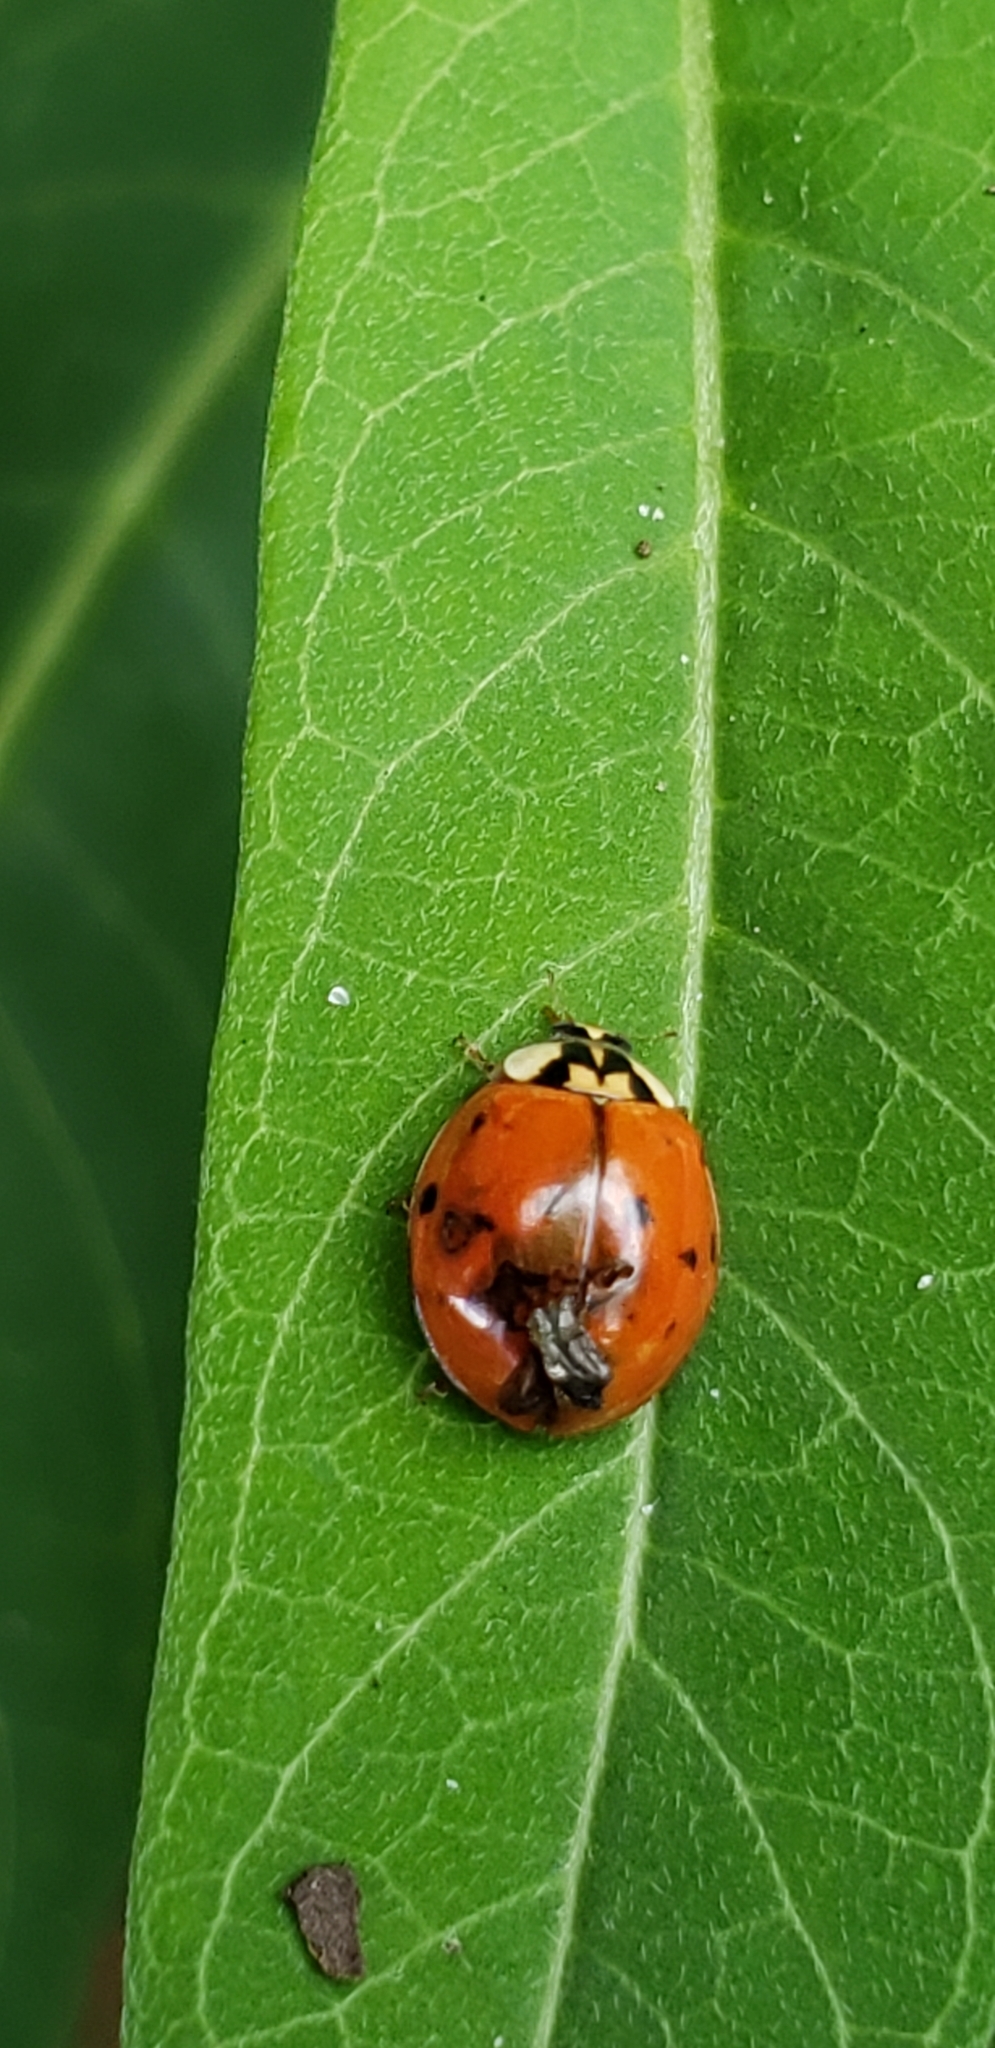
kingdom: Animalia
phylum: Arthropoda
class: Insecta
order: Coleoptera
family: Coccinellidae
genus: Harmonia
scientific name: Harmonia axyridis
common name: Harlequin ladybird
